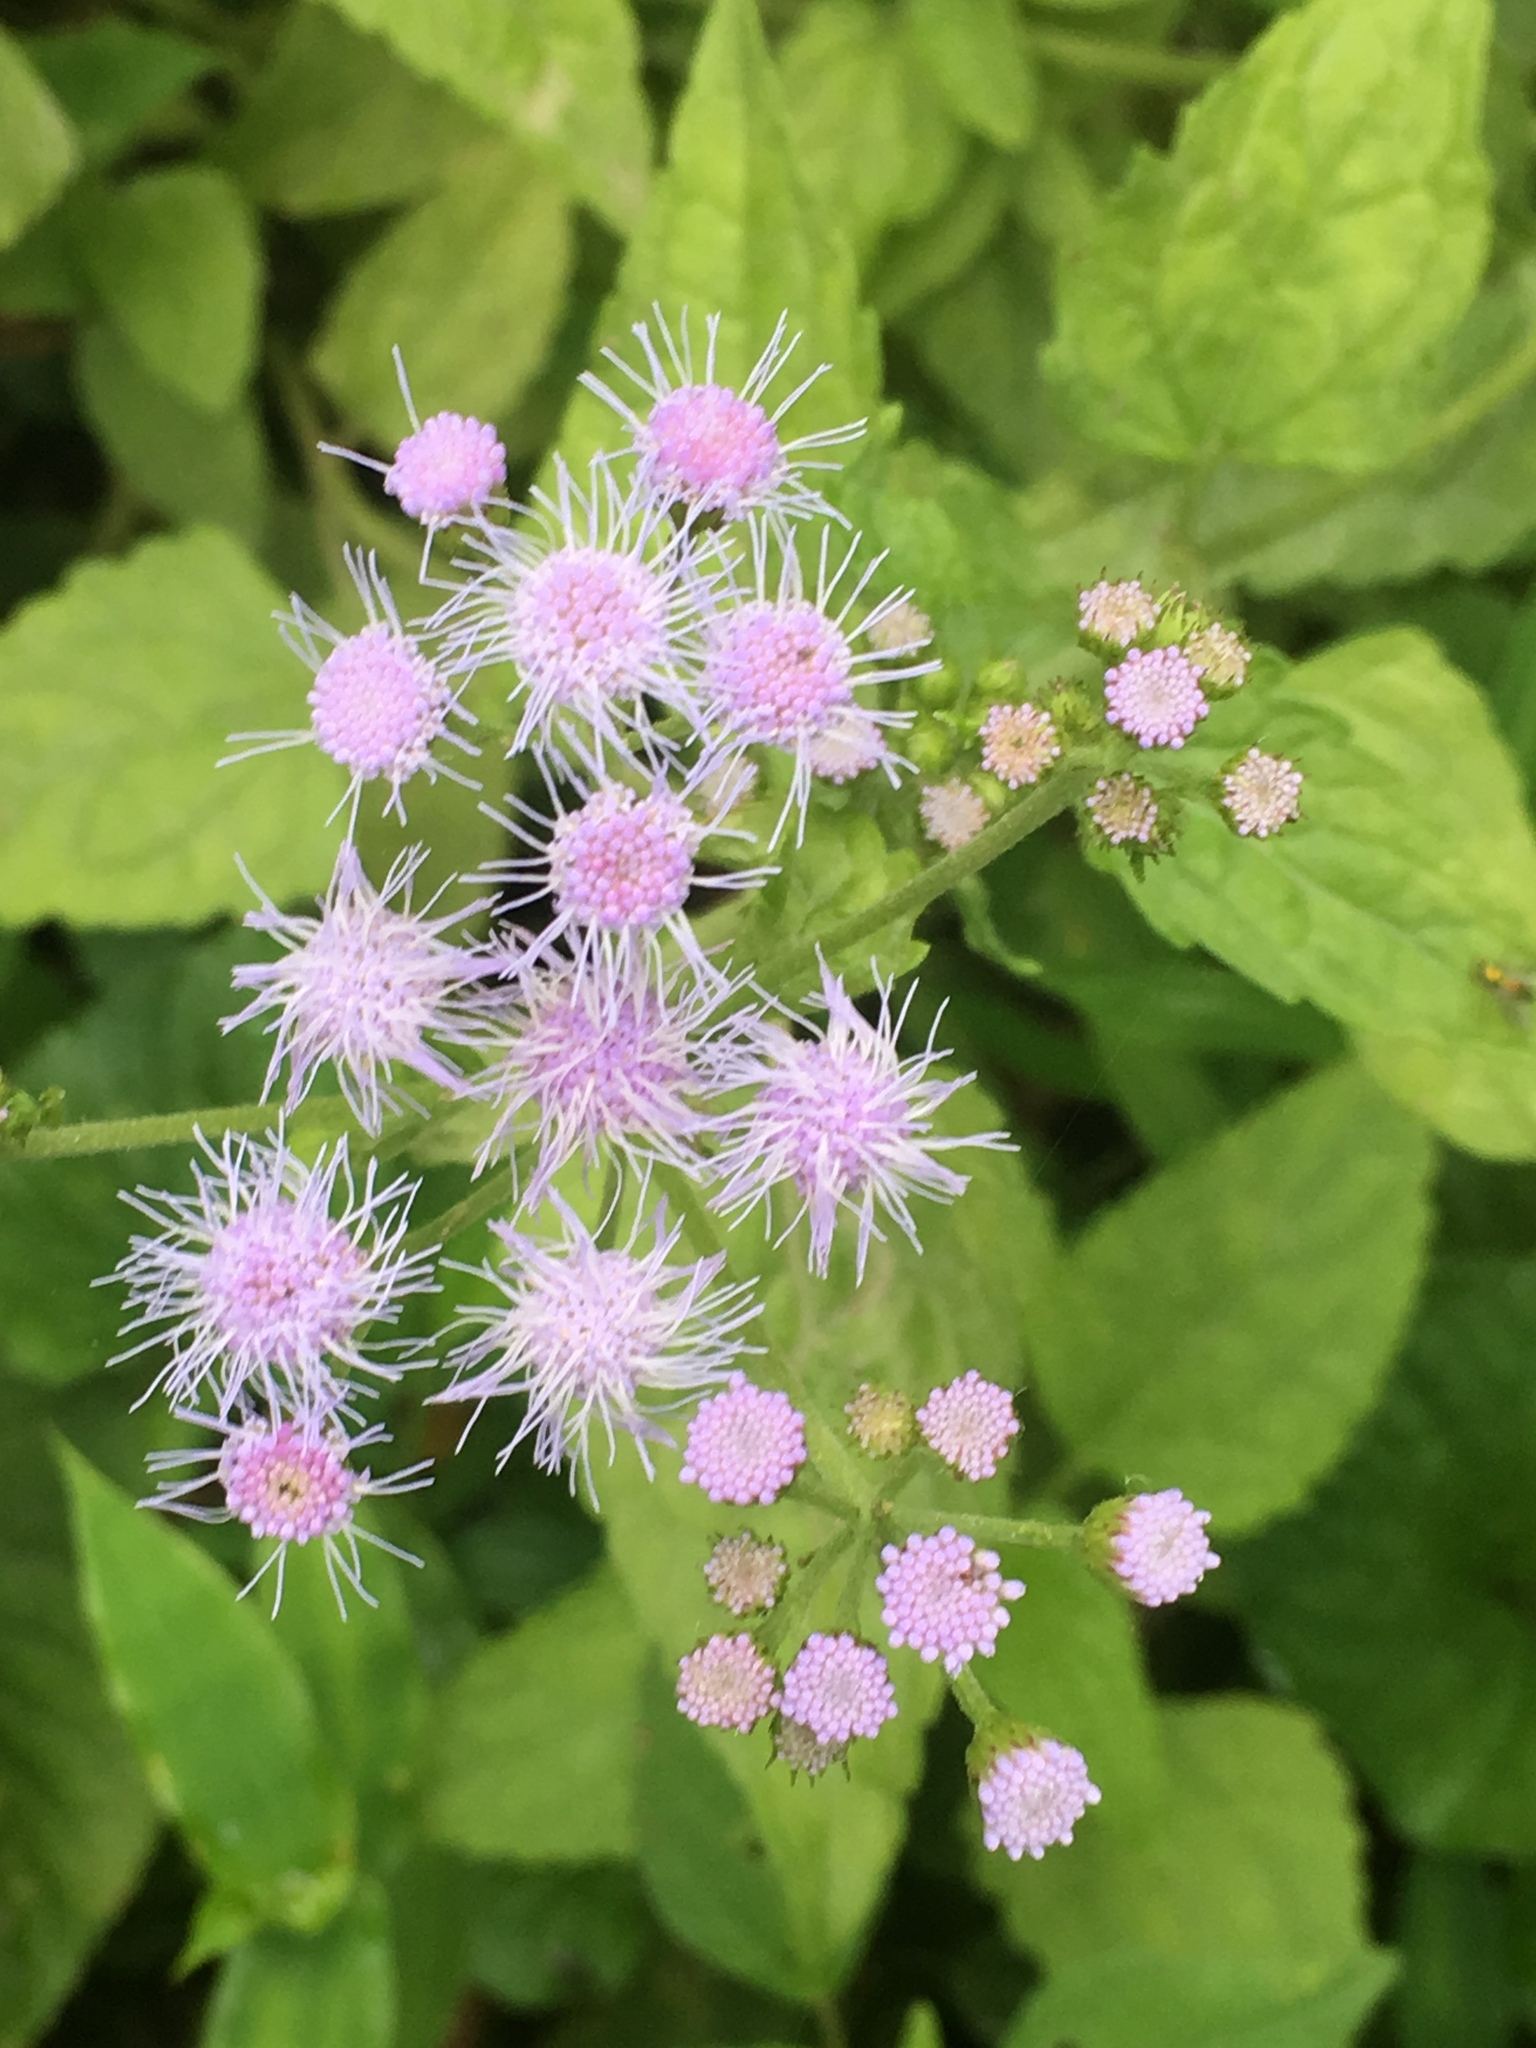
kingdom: Plantae
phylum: Tracheophyta
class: Magnoliopsida
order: Asterales
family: Asteraceae
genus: Conoclinium
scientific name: Conoclinium coelestinum
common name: Blue mistflower
